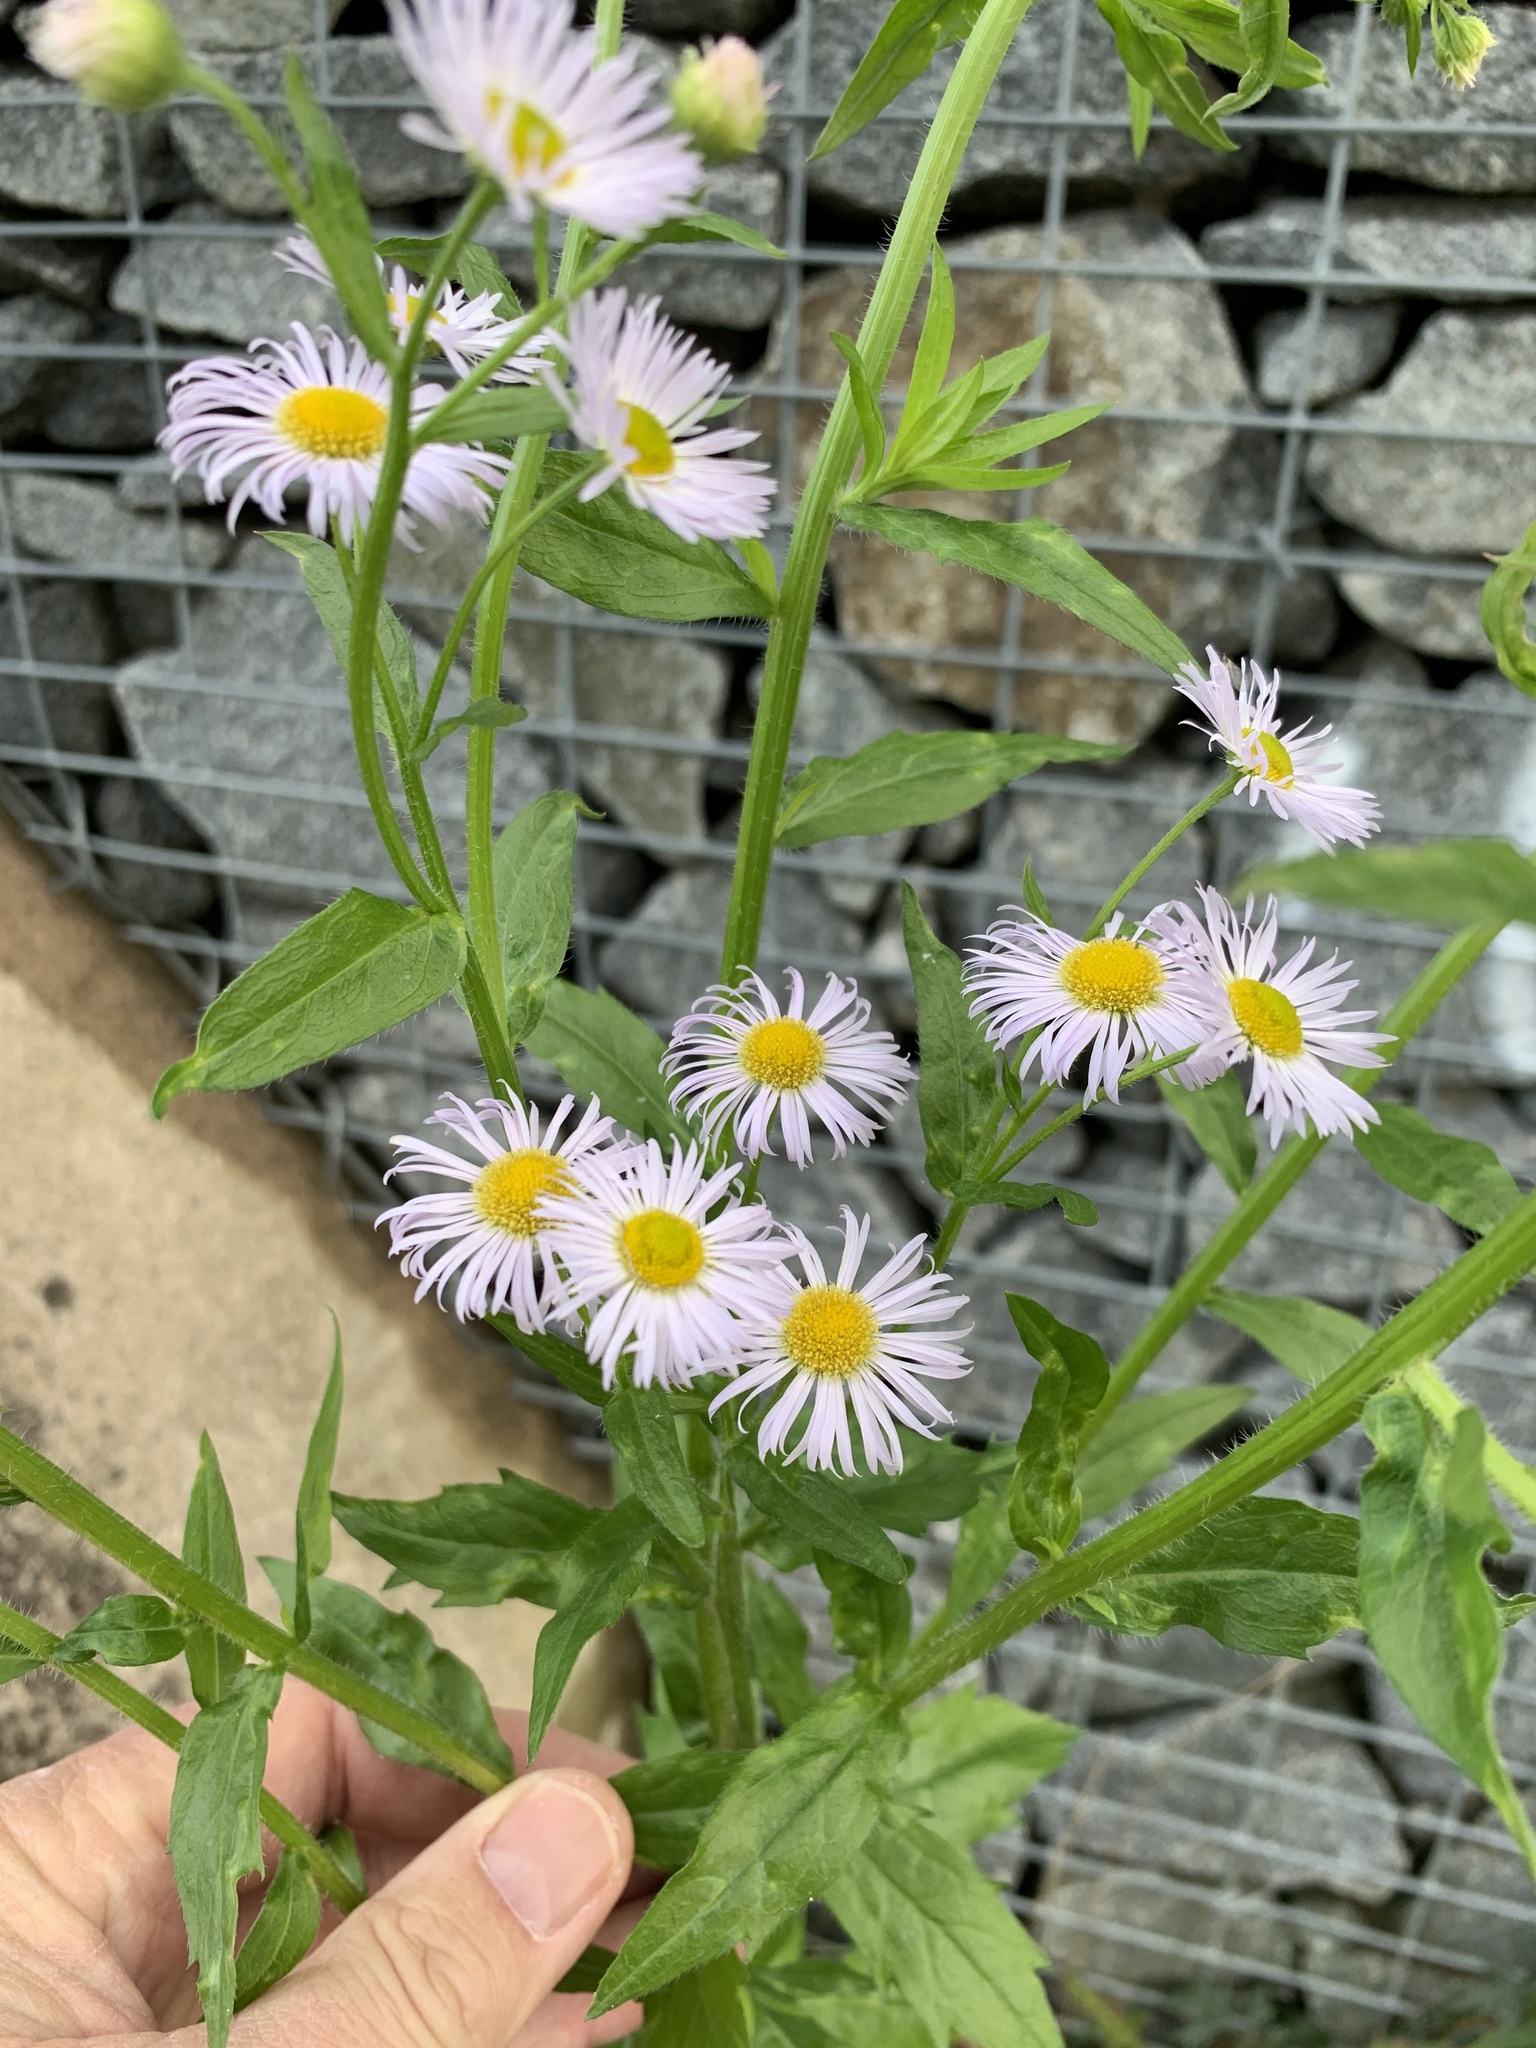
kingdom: Plantae
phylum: Tracheophyta
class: Magnoliopsida
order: Asterales
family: Asteraceae
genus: Erigeron
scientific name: Erigeron annuus
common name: Tall fleabane
